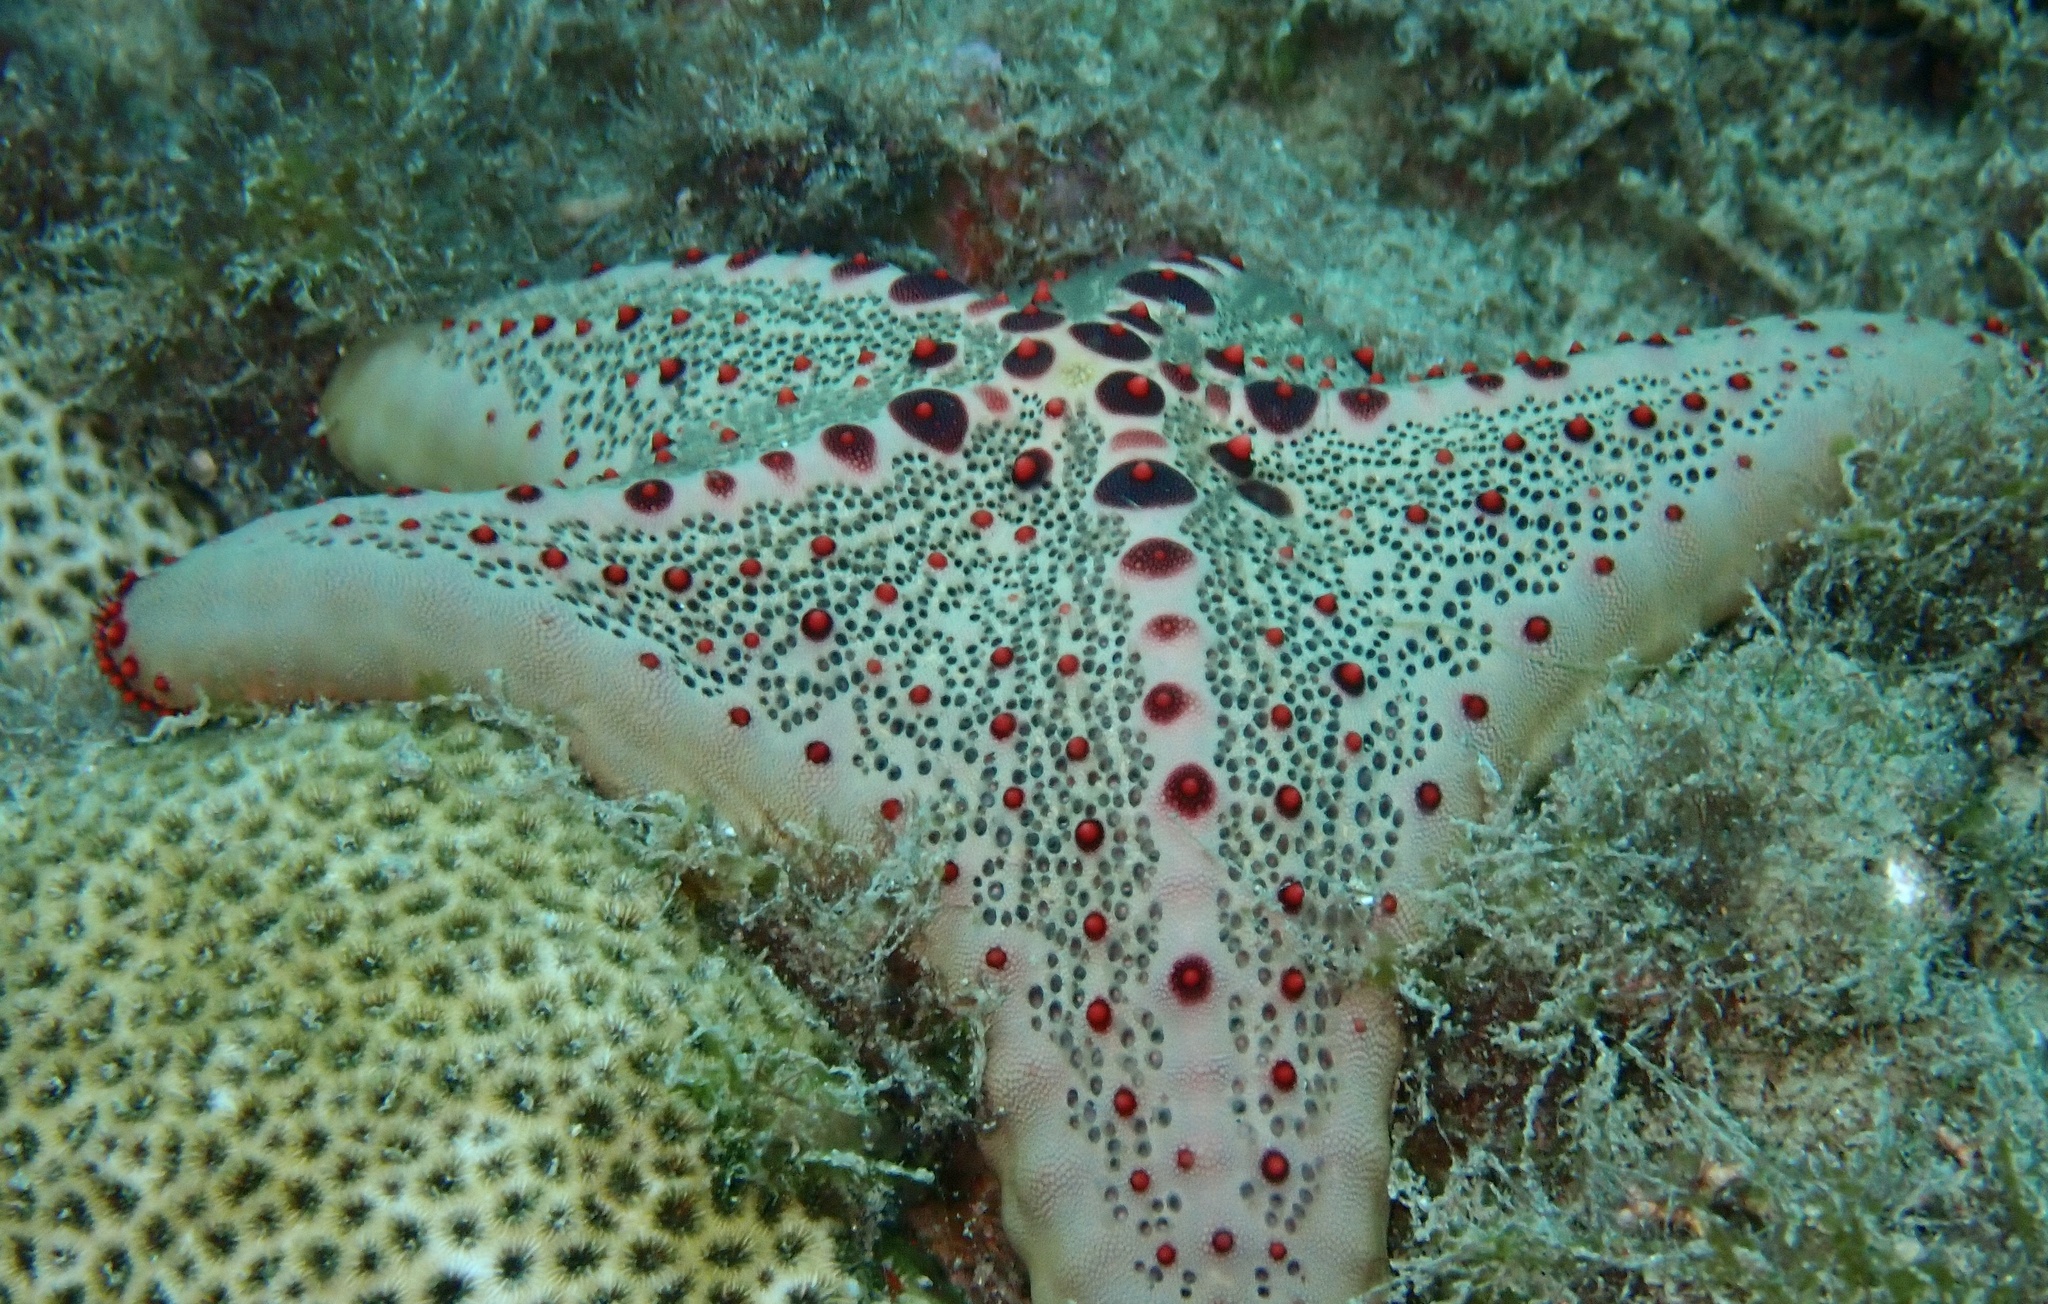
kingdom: Animalia
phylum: Echinodermata
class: Asteroidea
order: Valvatida
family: Oreasteridae
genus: Oreaster
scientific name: Oreaster clavatus
